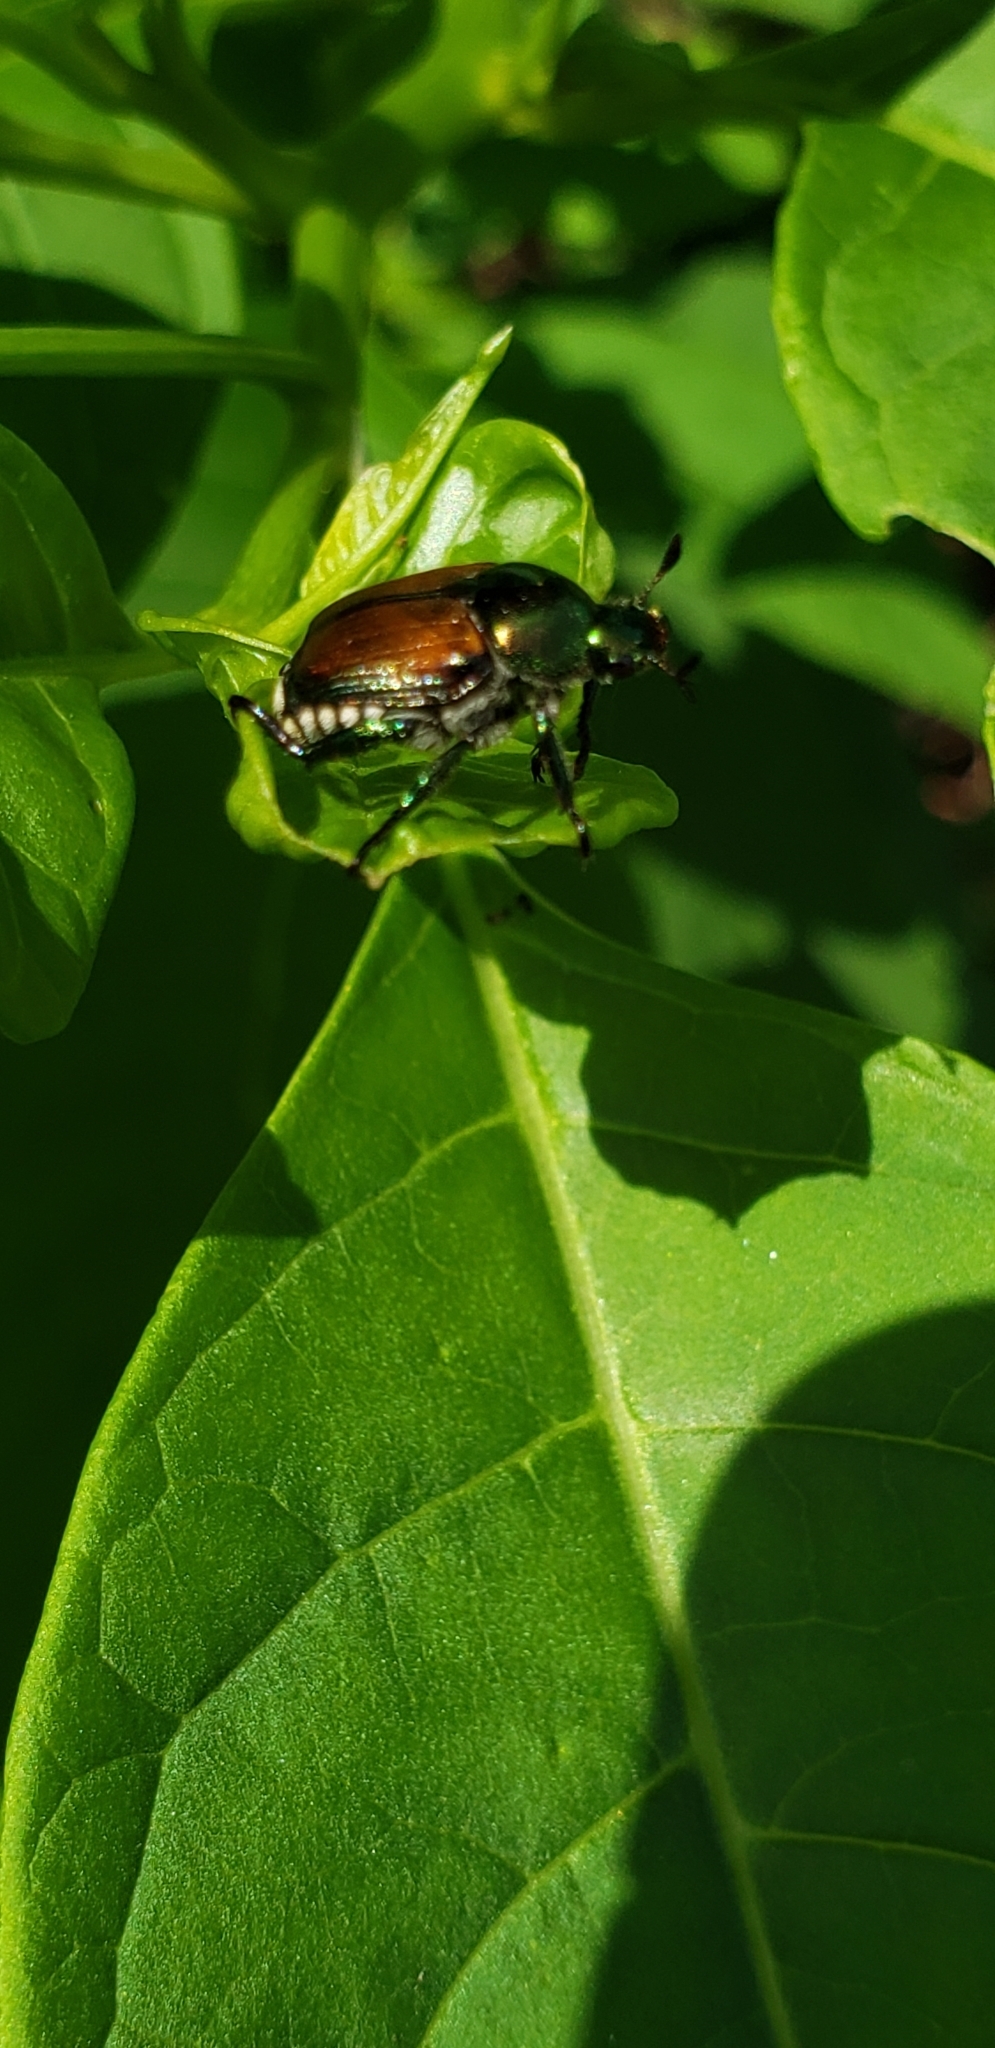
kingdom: Animalia
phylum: Arthropoda
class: Insecta
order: Coleoptera
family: Scarabaeidae
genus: Popillia
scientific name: Popillia japonica
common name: Japanese beetle
